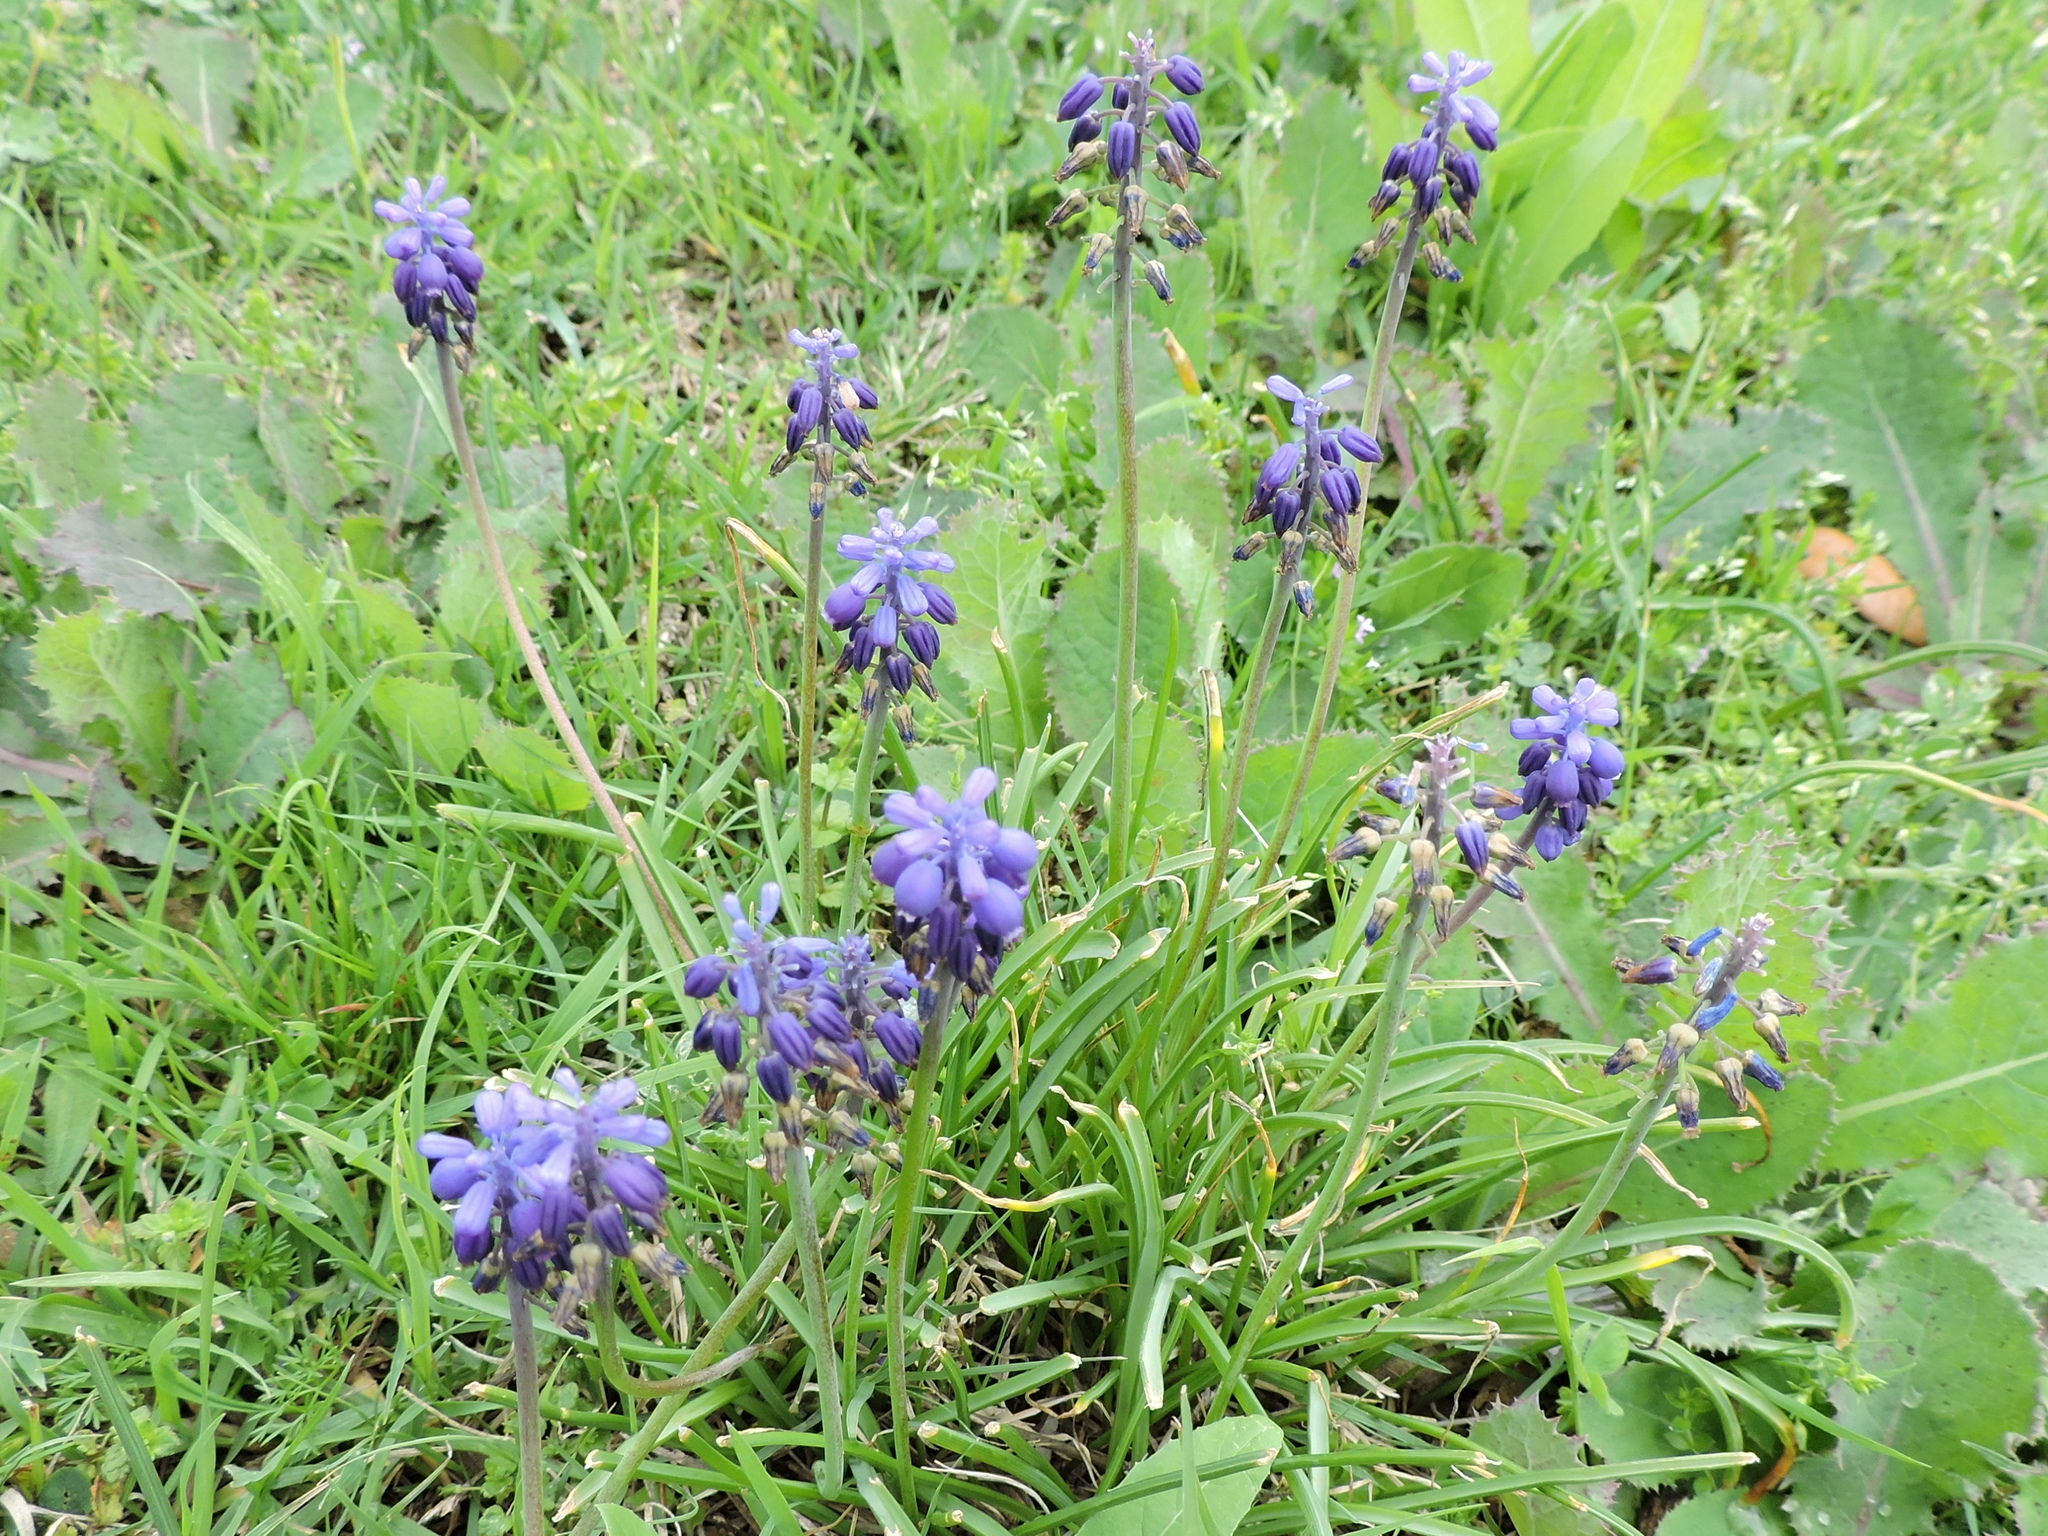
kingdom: Plantae
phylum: Tracheophyta
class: Liliopsida
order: Asparagales
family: Asparagaceae
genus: Muscari
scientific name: Muscari neglectum
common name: Grape-hyacinth
